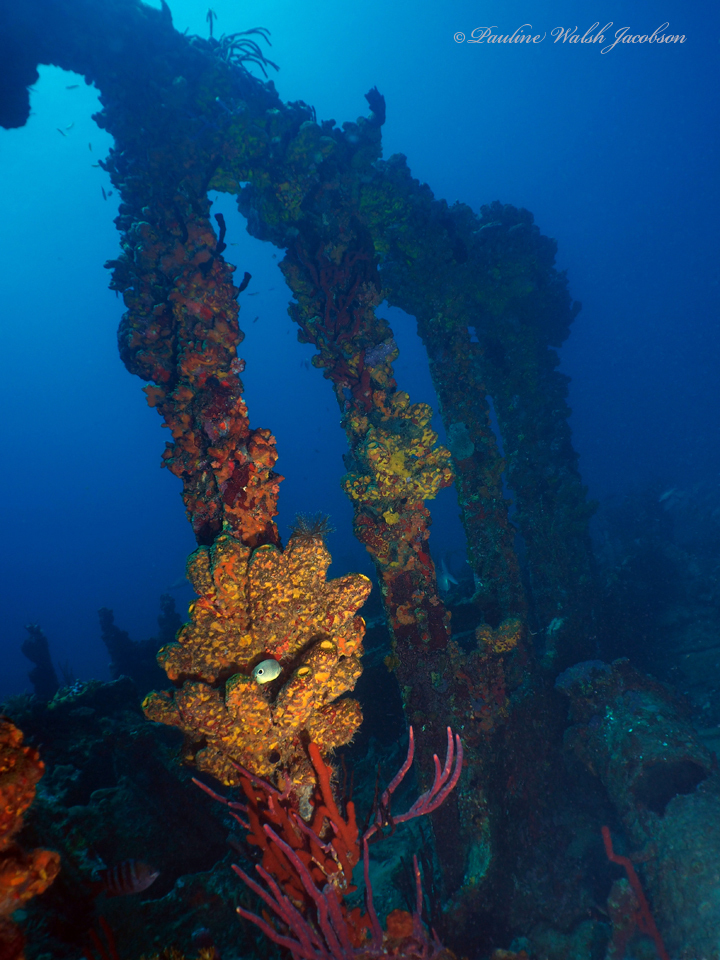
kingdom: Animalia
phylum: Chordata
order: Perciformes
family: Chaetodontidae
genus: Chaetodon
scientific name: Chaetodon capistratus
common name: Kete
